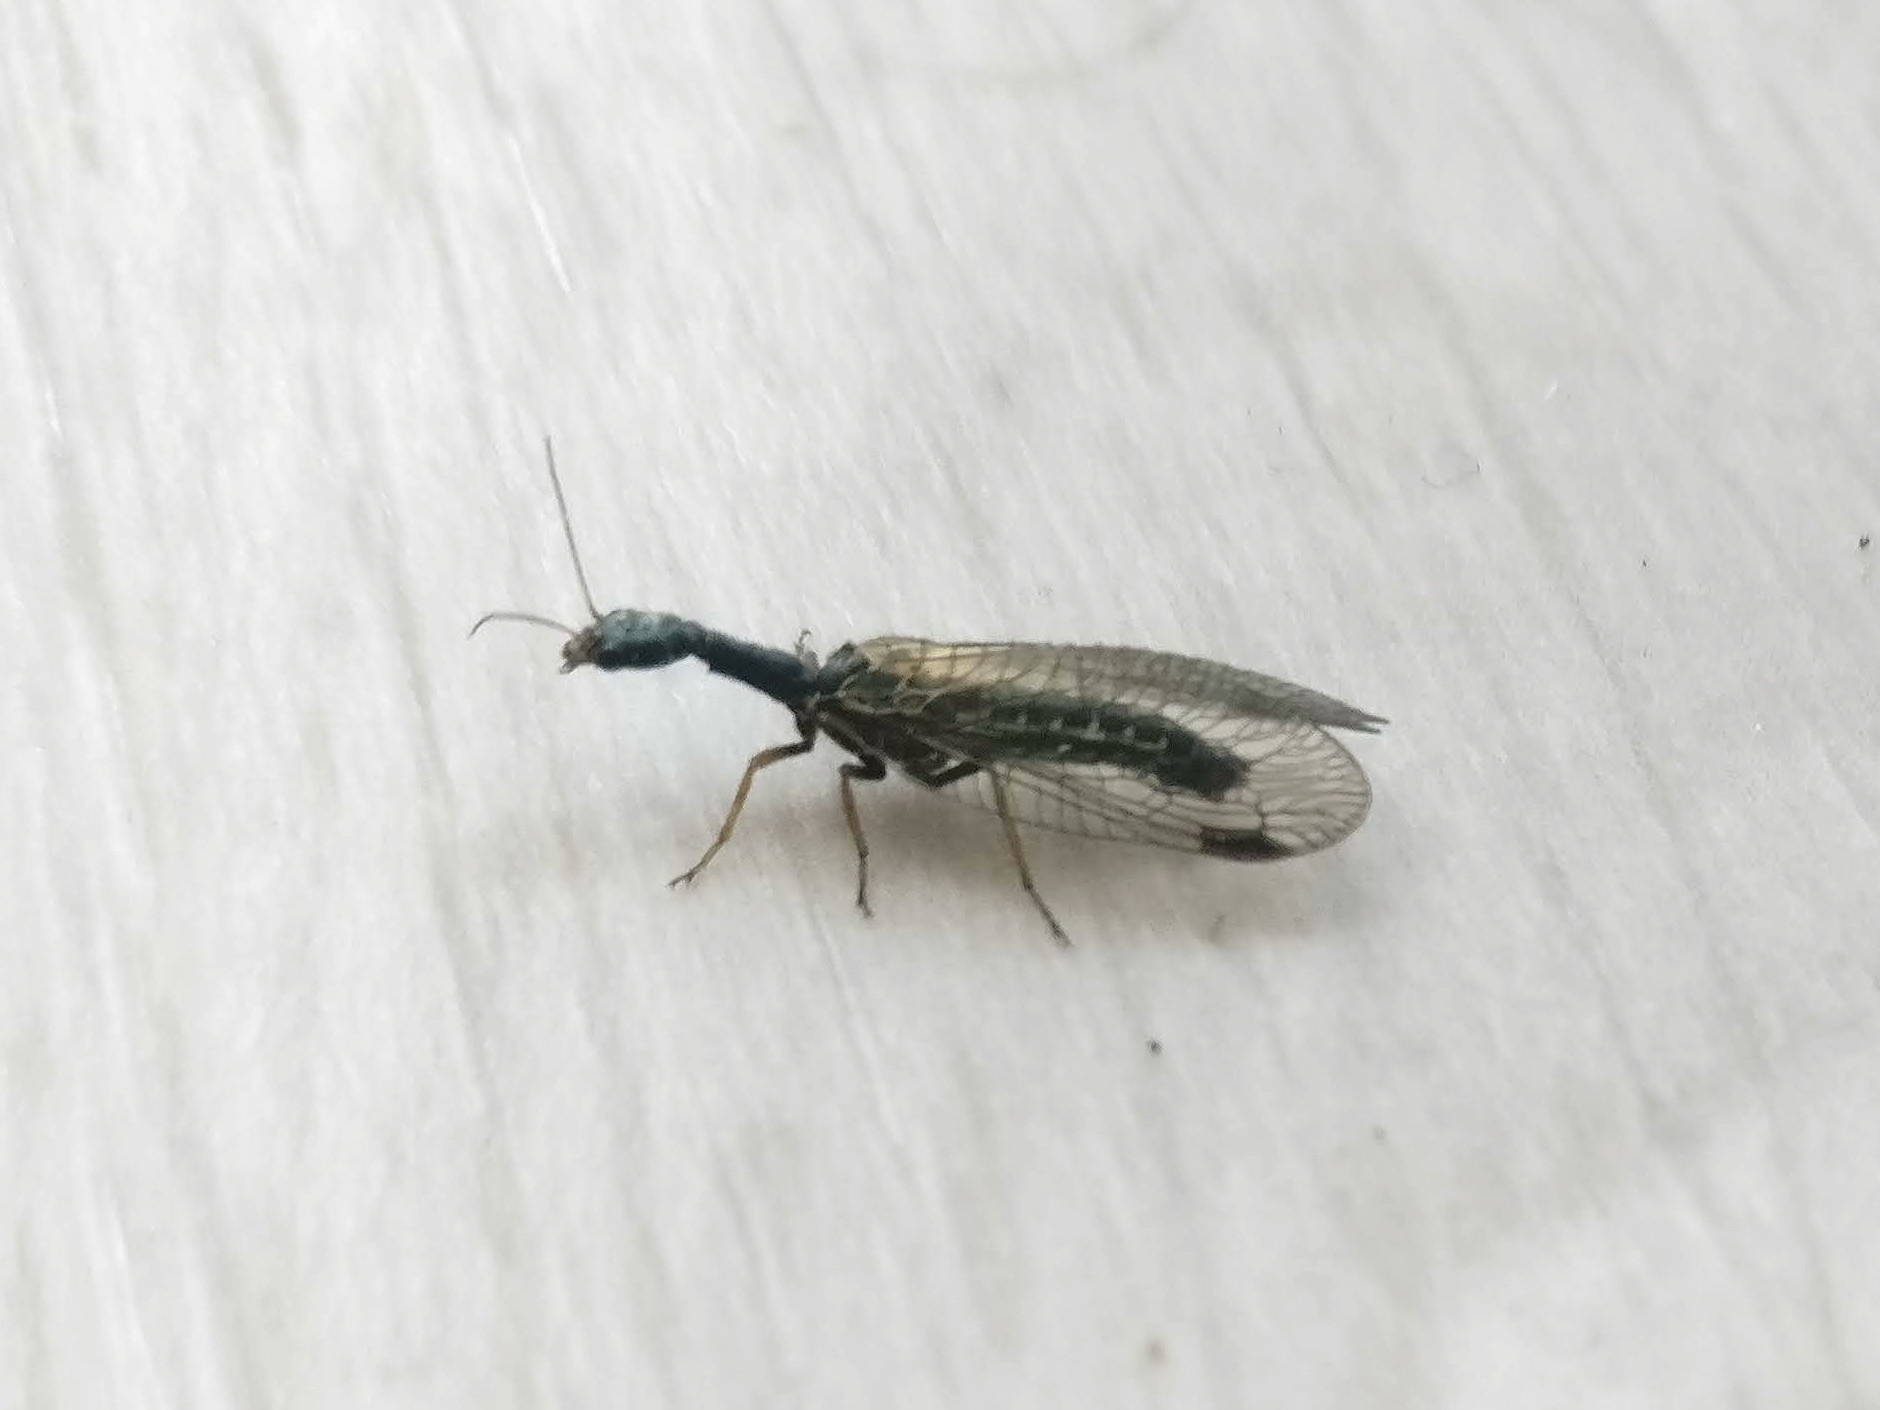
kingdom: Animalia
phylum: Arthropoda
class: Insecta
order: Raphidioptera
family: Raphidiidae
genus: Phaeostigma
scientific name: Phaeostigma notatum
